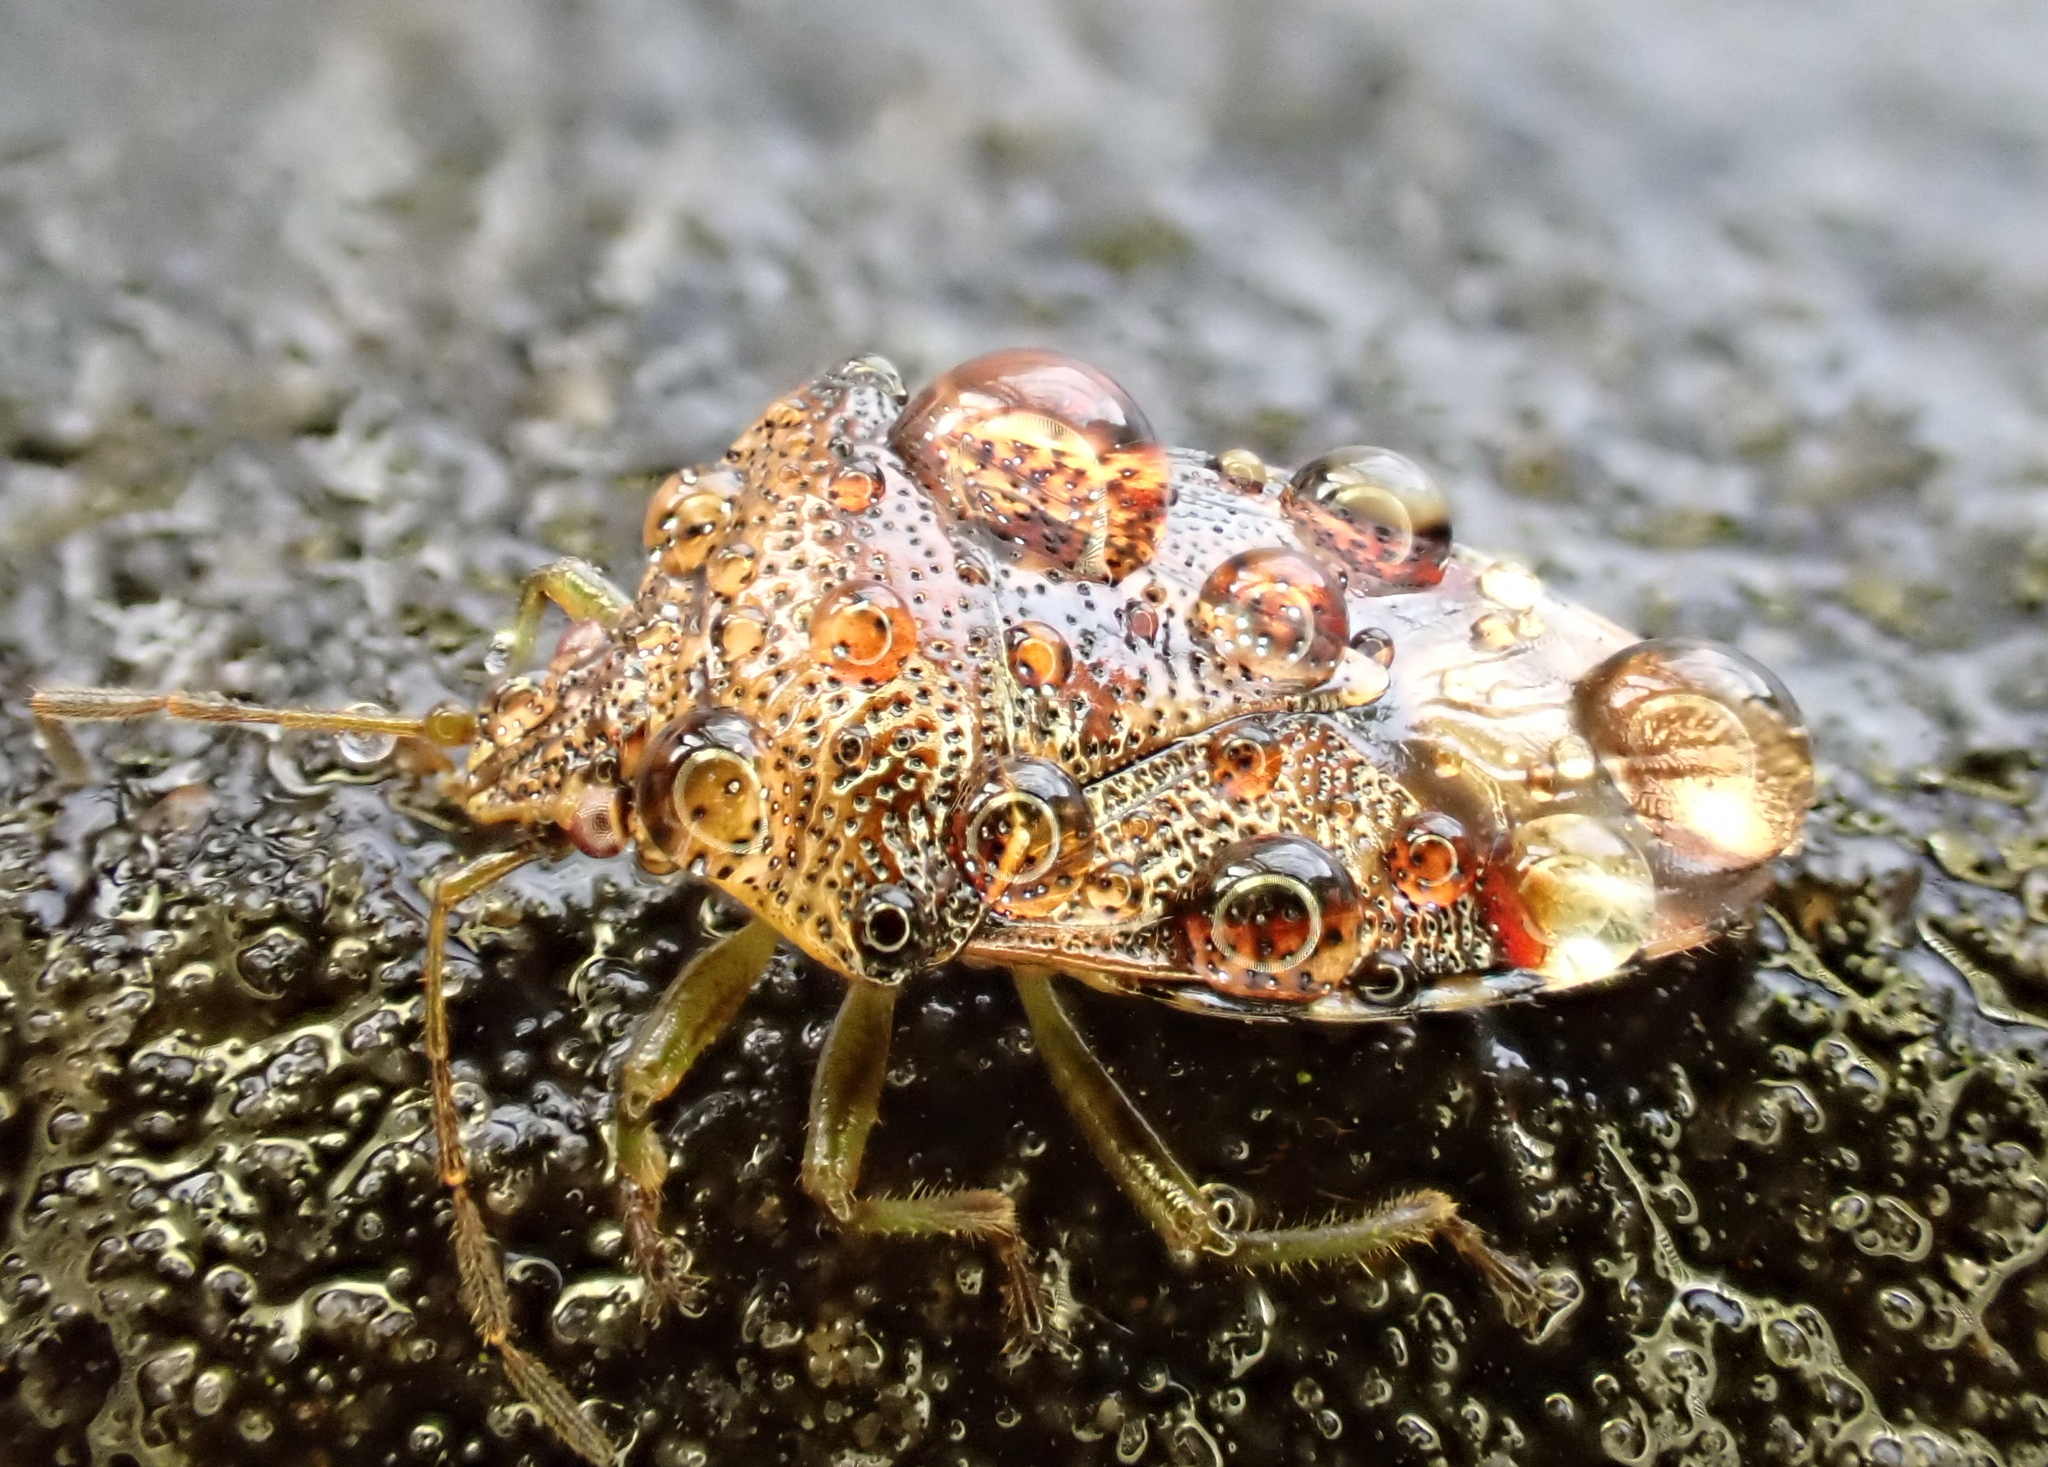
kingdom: Animalia
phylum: Arthropoda
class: Insecta
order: Hemiptera
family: Acanthosomatidae
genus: Elasmucha
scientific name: Elasmucha grisea
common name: Parent bug
